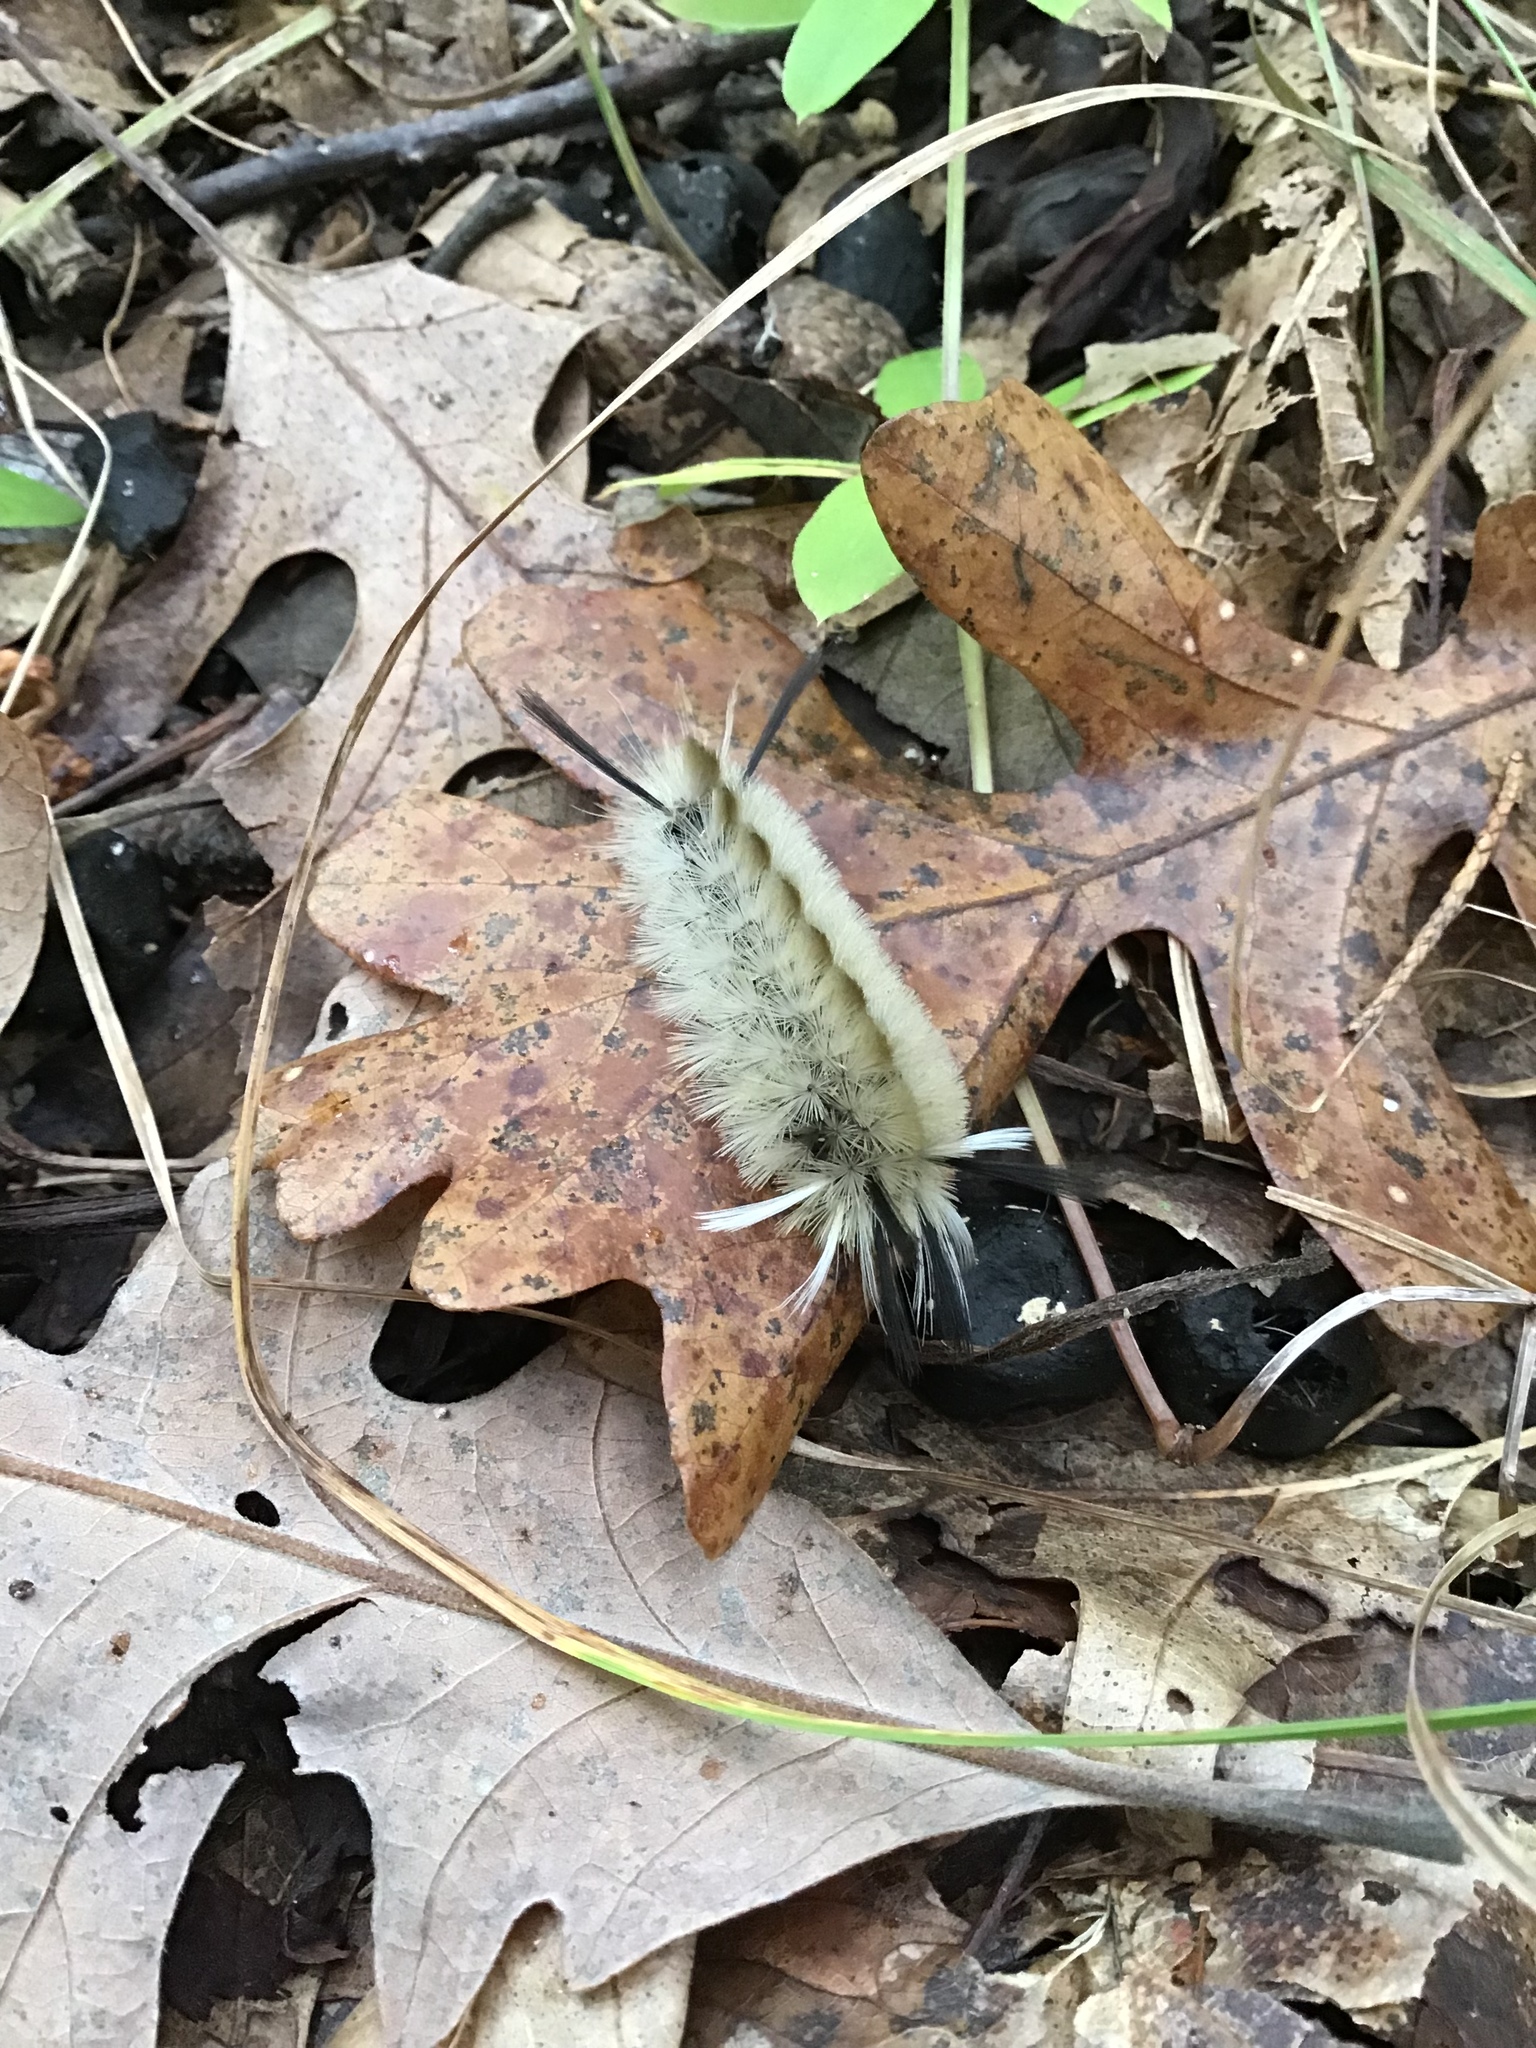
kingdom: Animalia
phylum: Arthropoda
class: Insecta
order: Lepidoptera
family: Erebidae
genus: Halysidota
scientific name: Halysidota tessellaris
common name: Banded tussock moth
